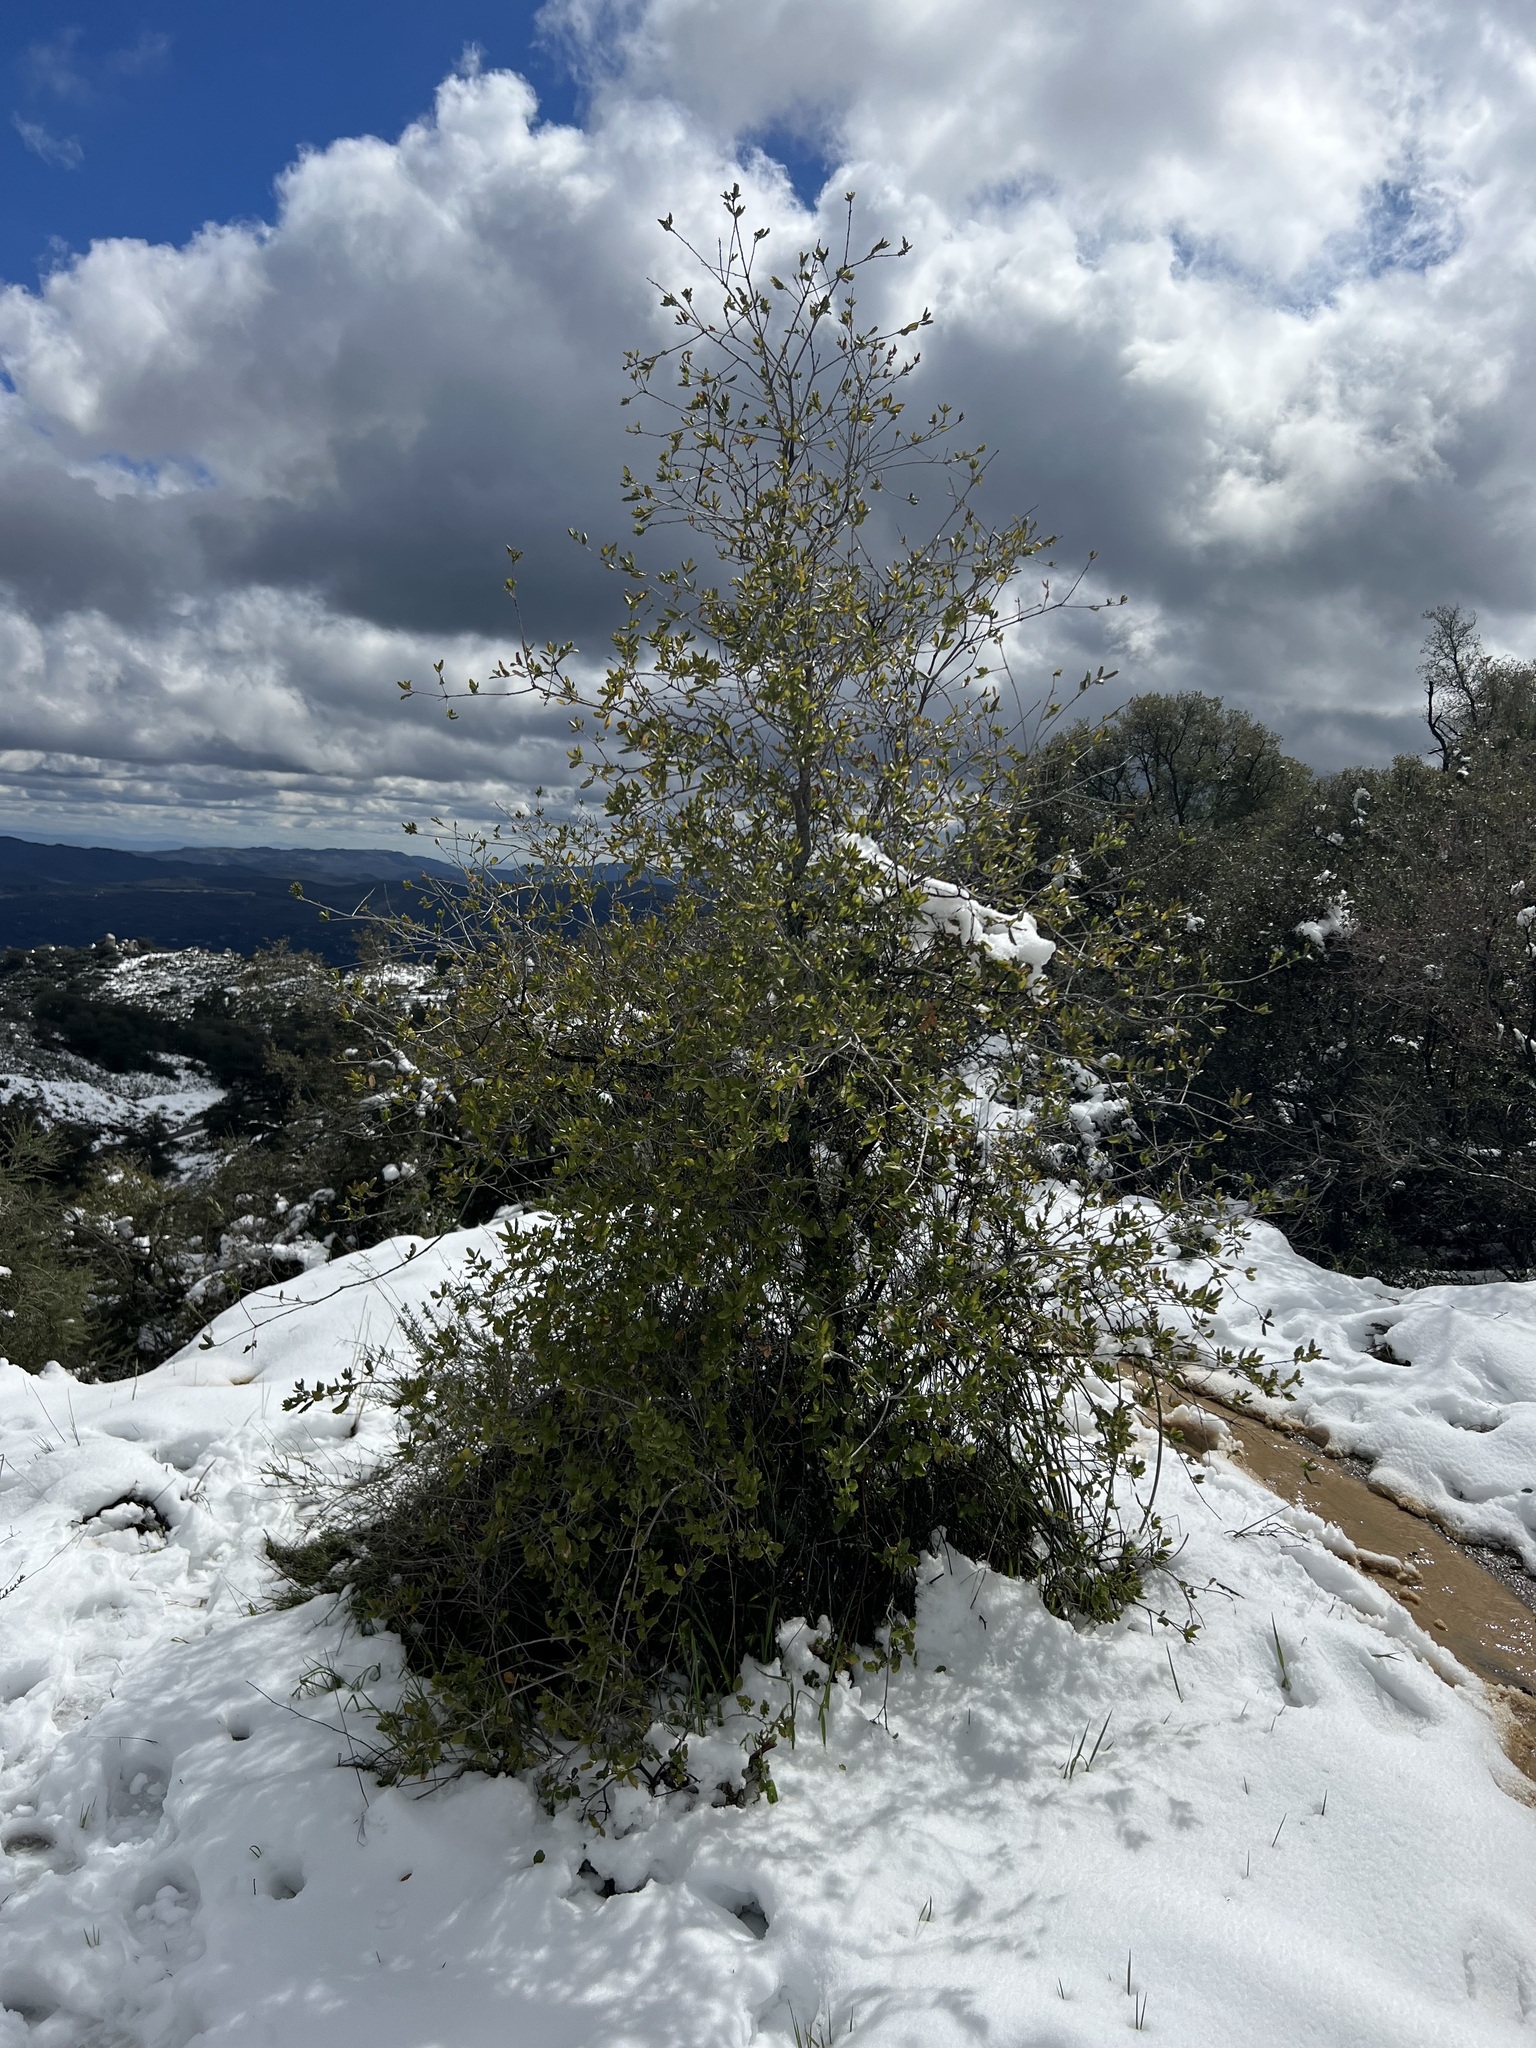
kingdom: Plantae
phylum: Tracheophyta
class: Magnoliopsida
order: Fagales
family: Fagaceae
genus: Quercus
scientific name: Quercus agrifolia
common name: California live oak
